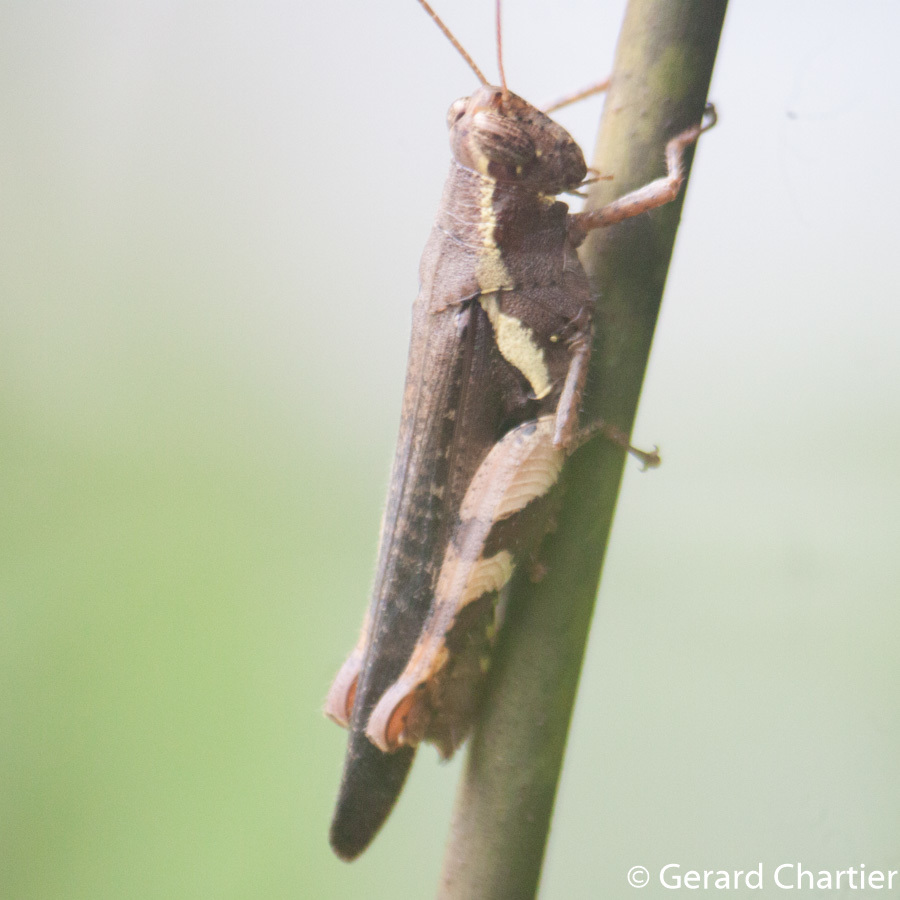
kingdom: Animalia
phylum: Arthropoda
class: Insecta
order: Orthoptera
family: Acrididae
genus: Xenocatantops
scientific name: Xenocatantops humile
